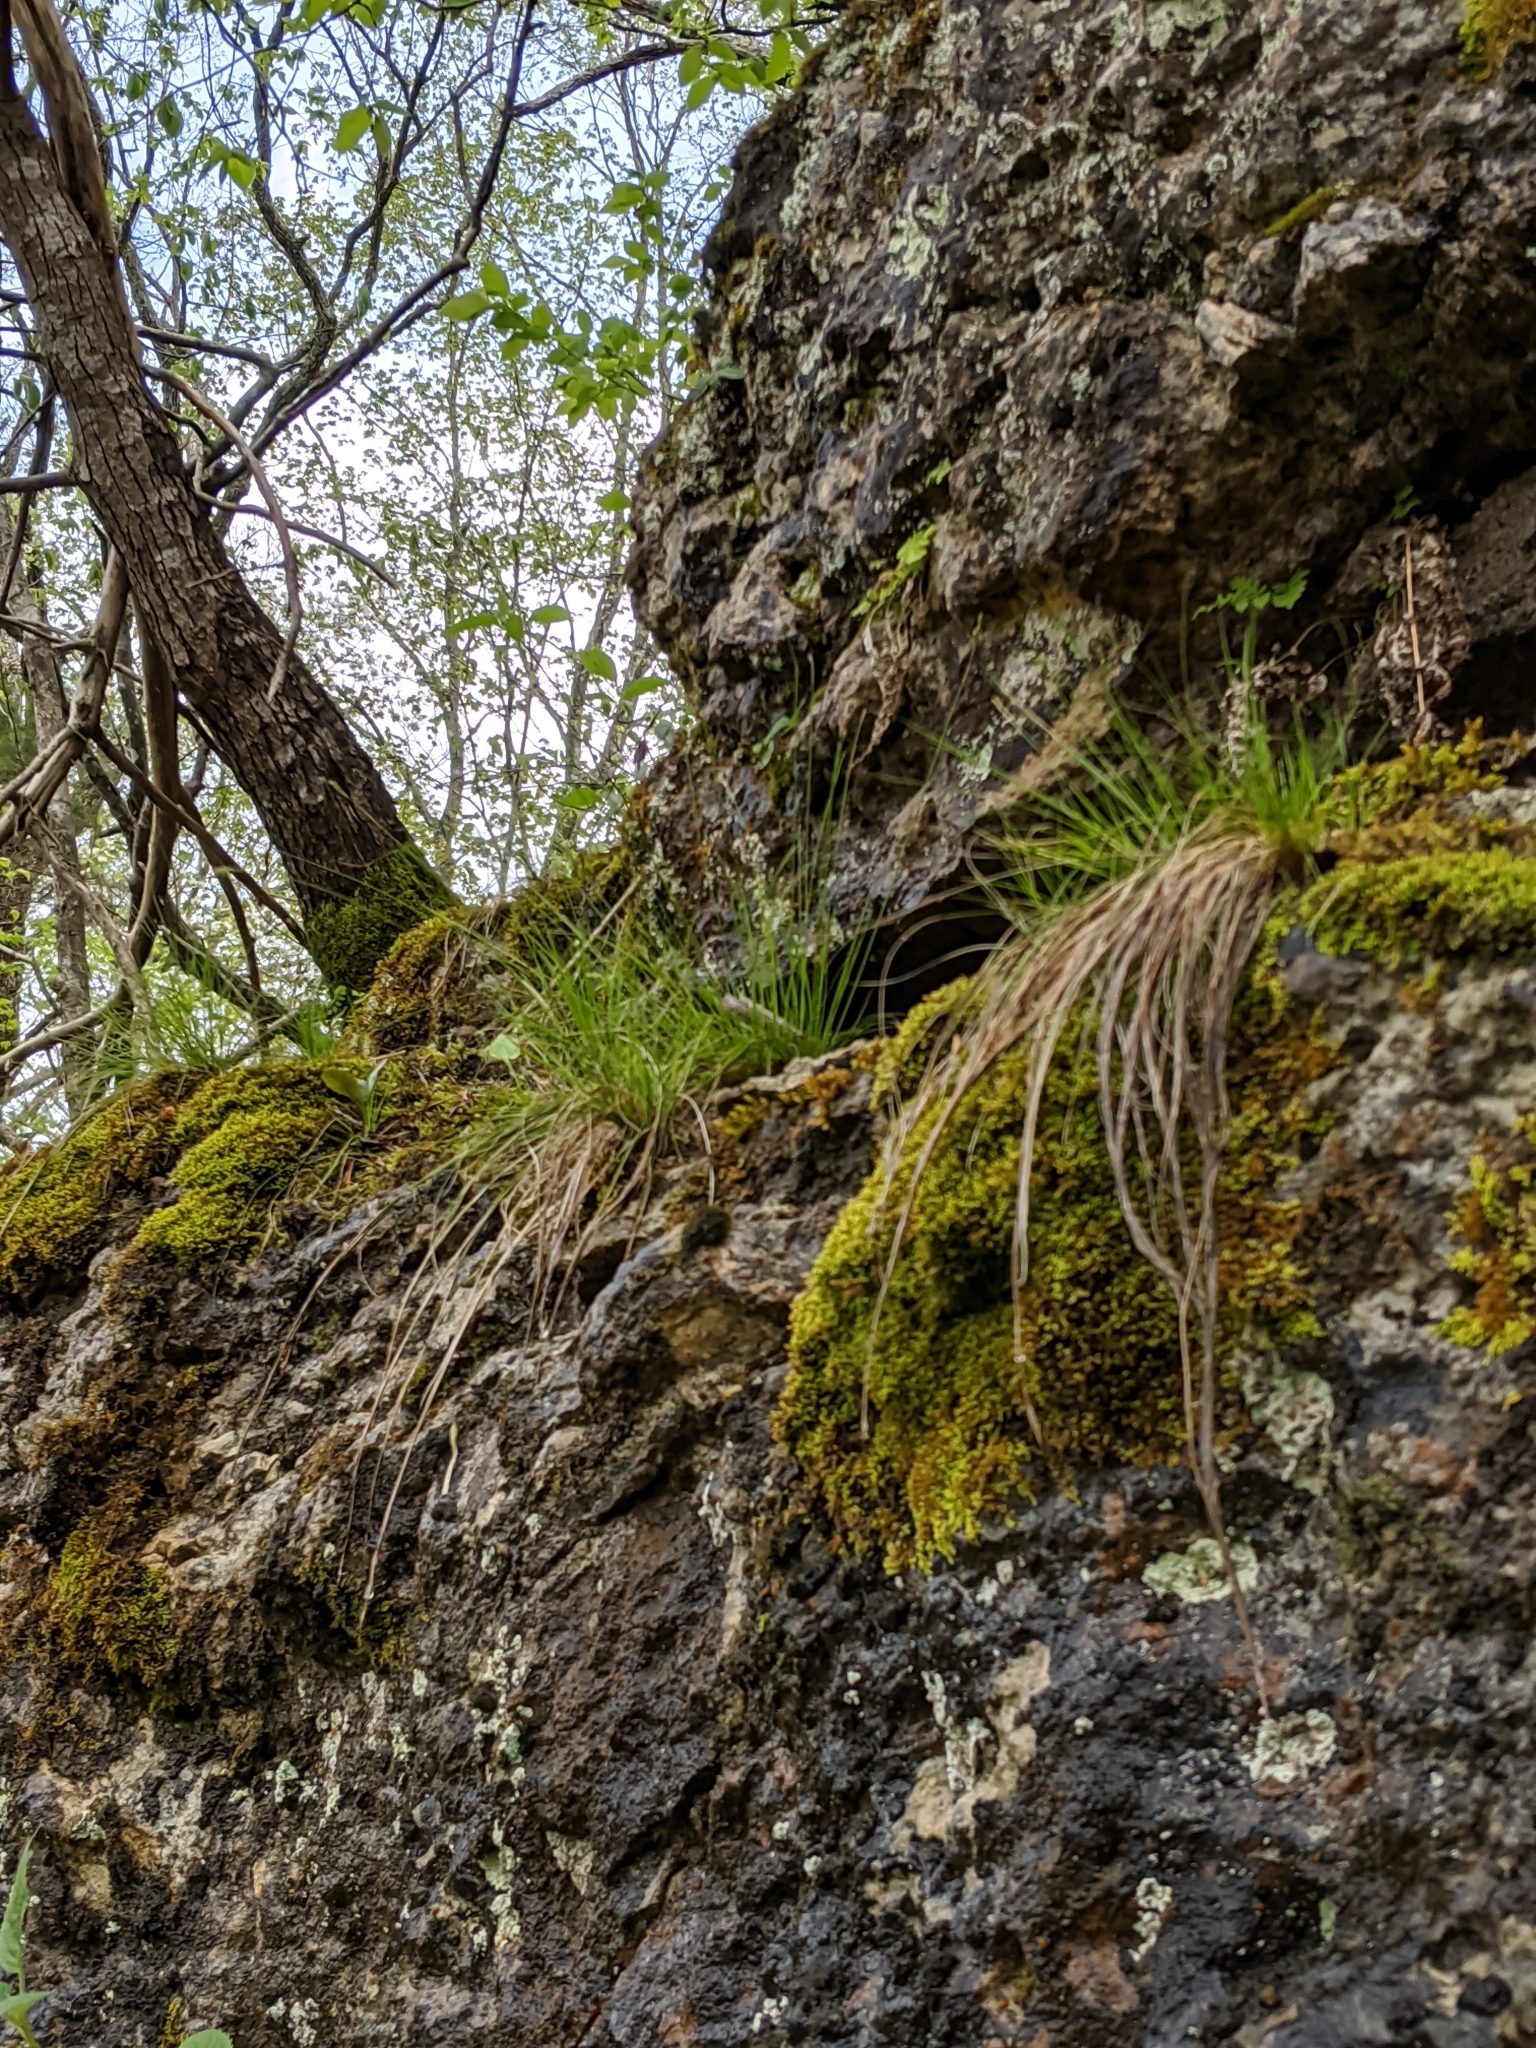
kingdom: Plantae
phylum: Tracheophyta
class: Liliopsida
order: Poales
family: Cyperaceae
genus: Carex
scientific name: Carex eburnea
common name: Bristle-leaved sedge
